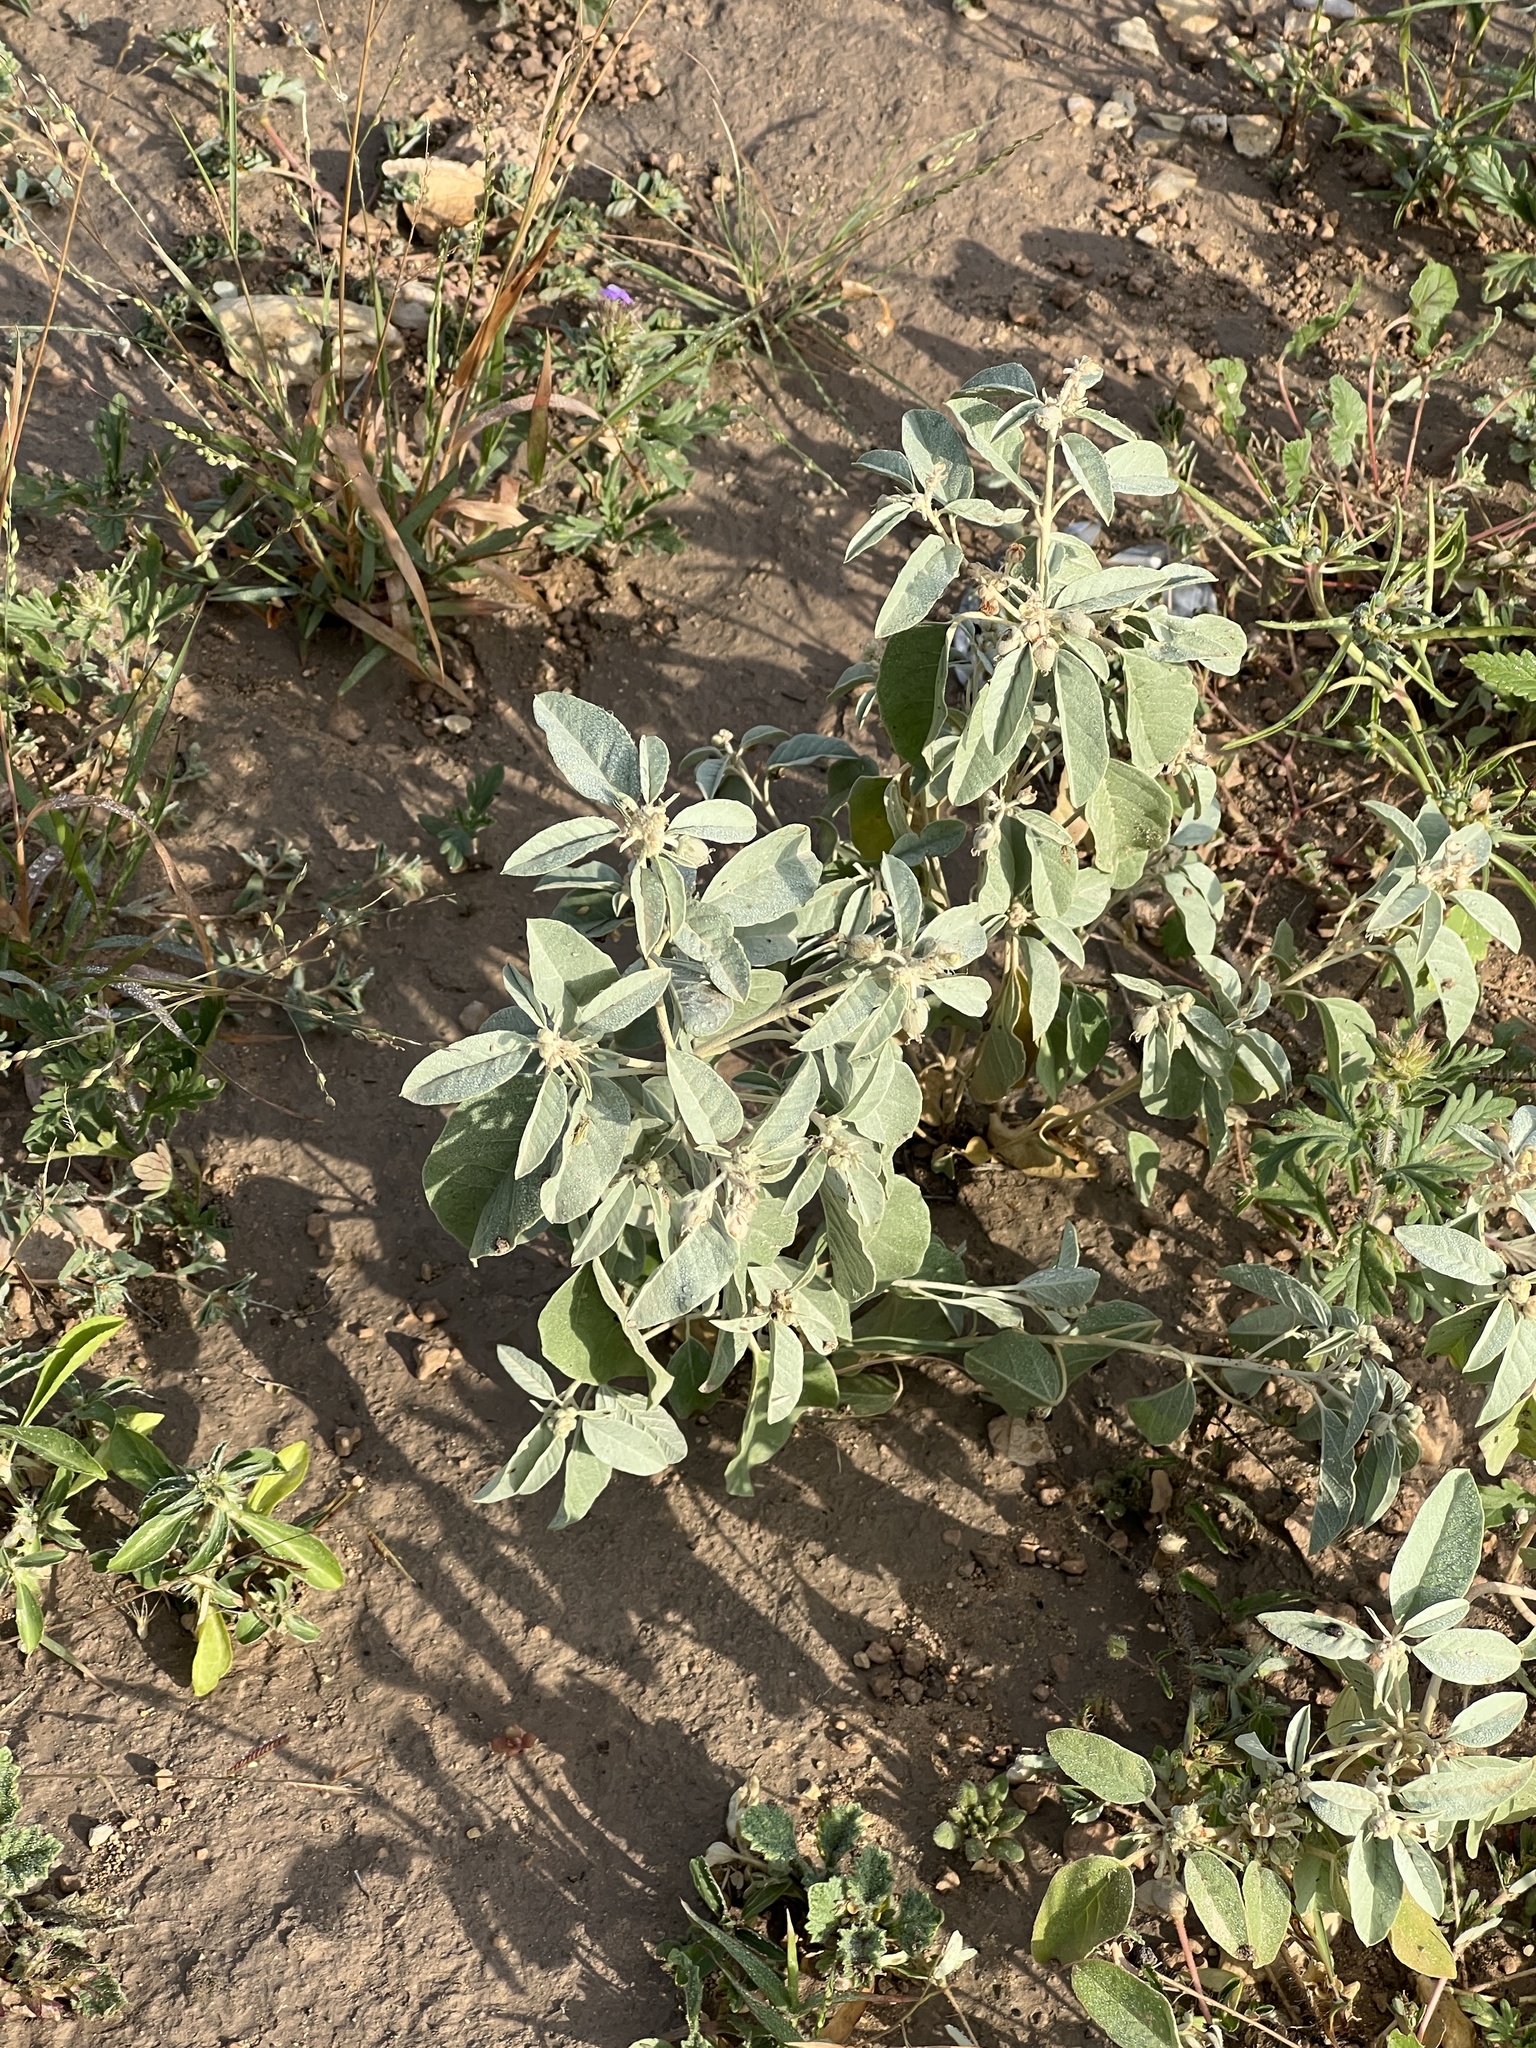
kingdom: Plantae
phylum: Tracheophyta
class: Magnoliopsida
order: Malpighiales
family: Euphorbiaceae
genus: Croton
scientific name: Croton pottsii
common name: Leatherweed
